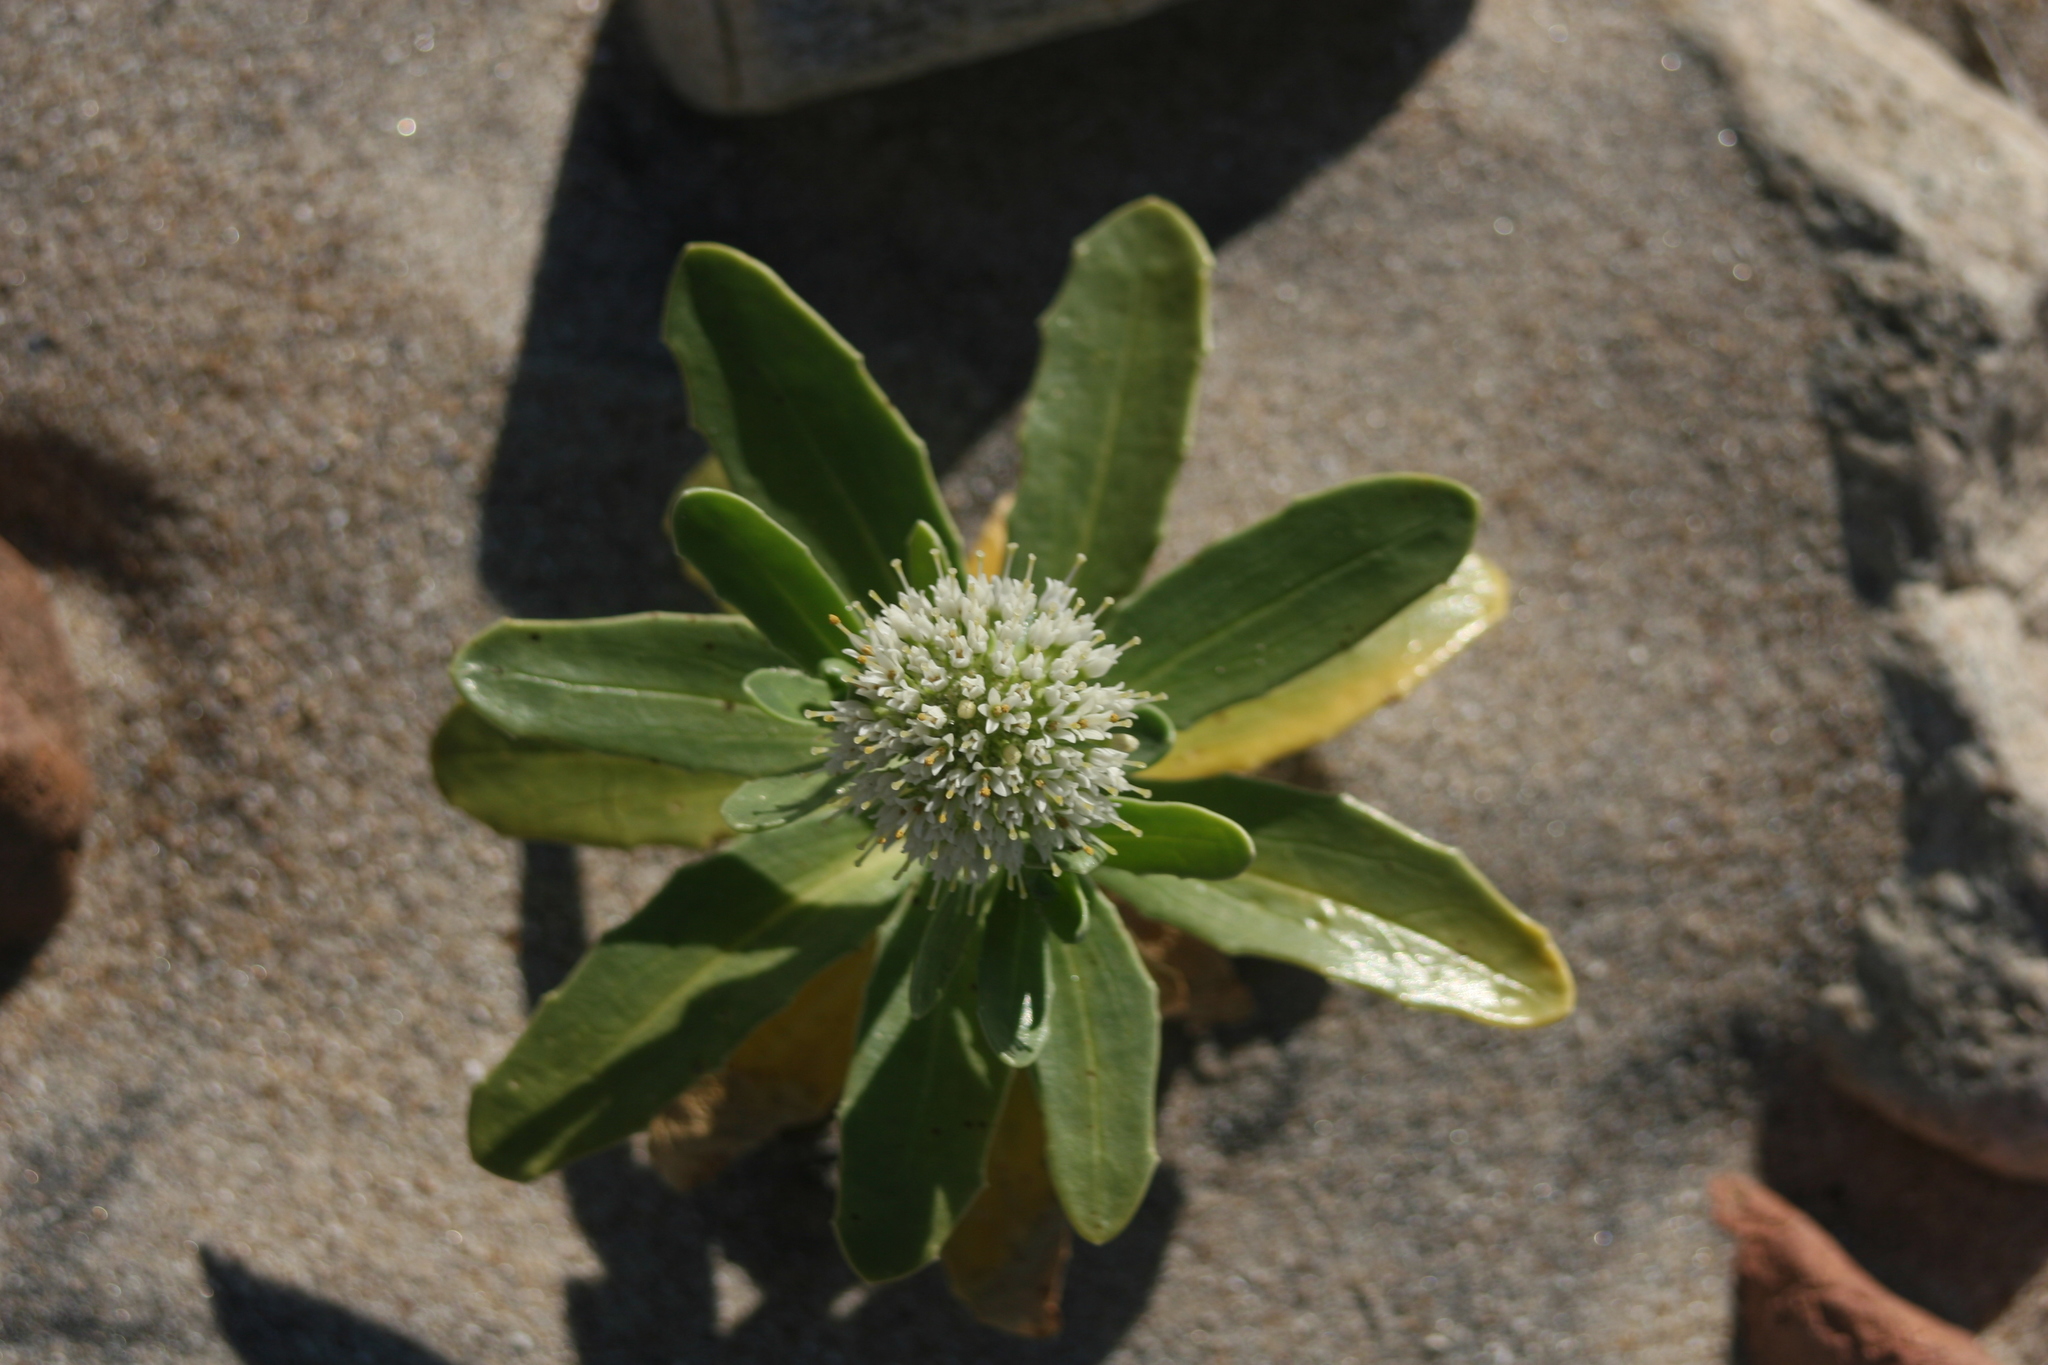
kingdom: Plantae
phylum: Tracheophyta
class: Magnoliopsida
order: Asterales
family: Calyceraceae
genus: Calycera
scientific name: Calycera crassifolia
